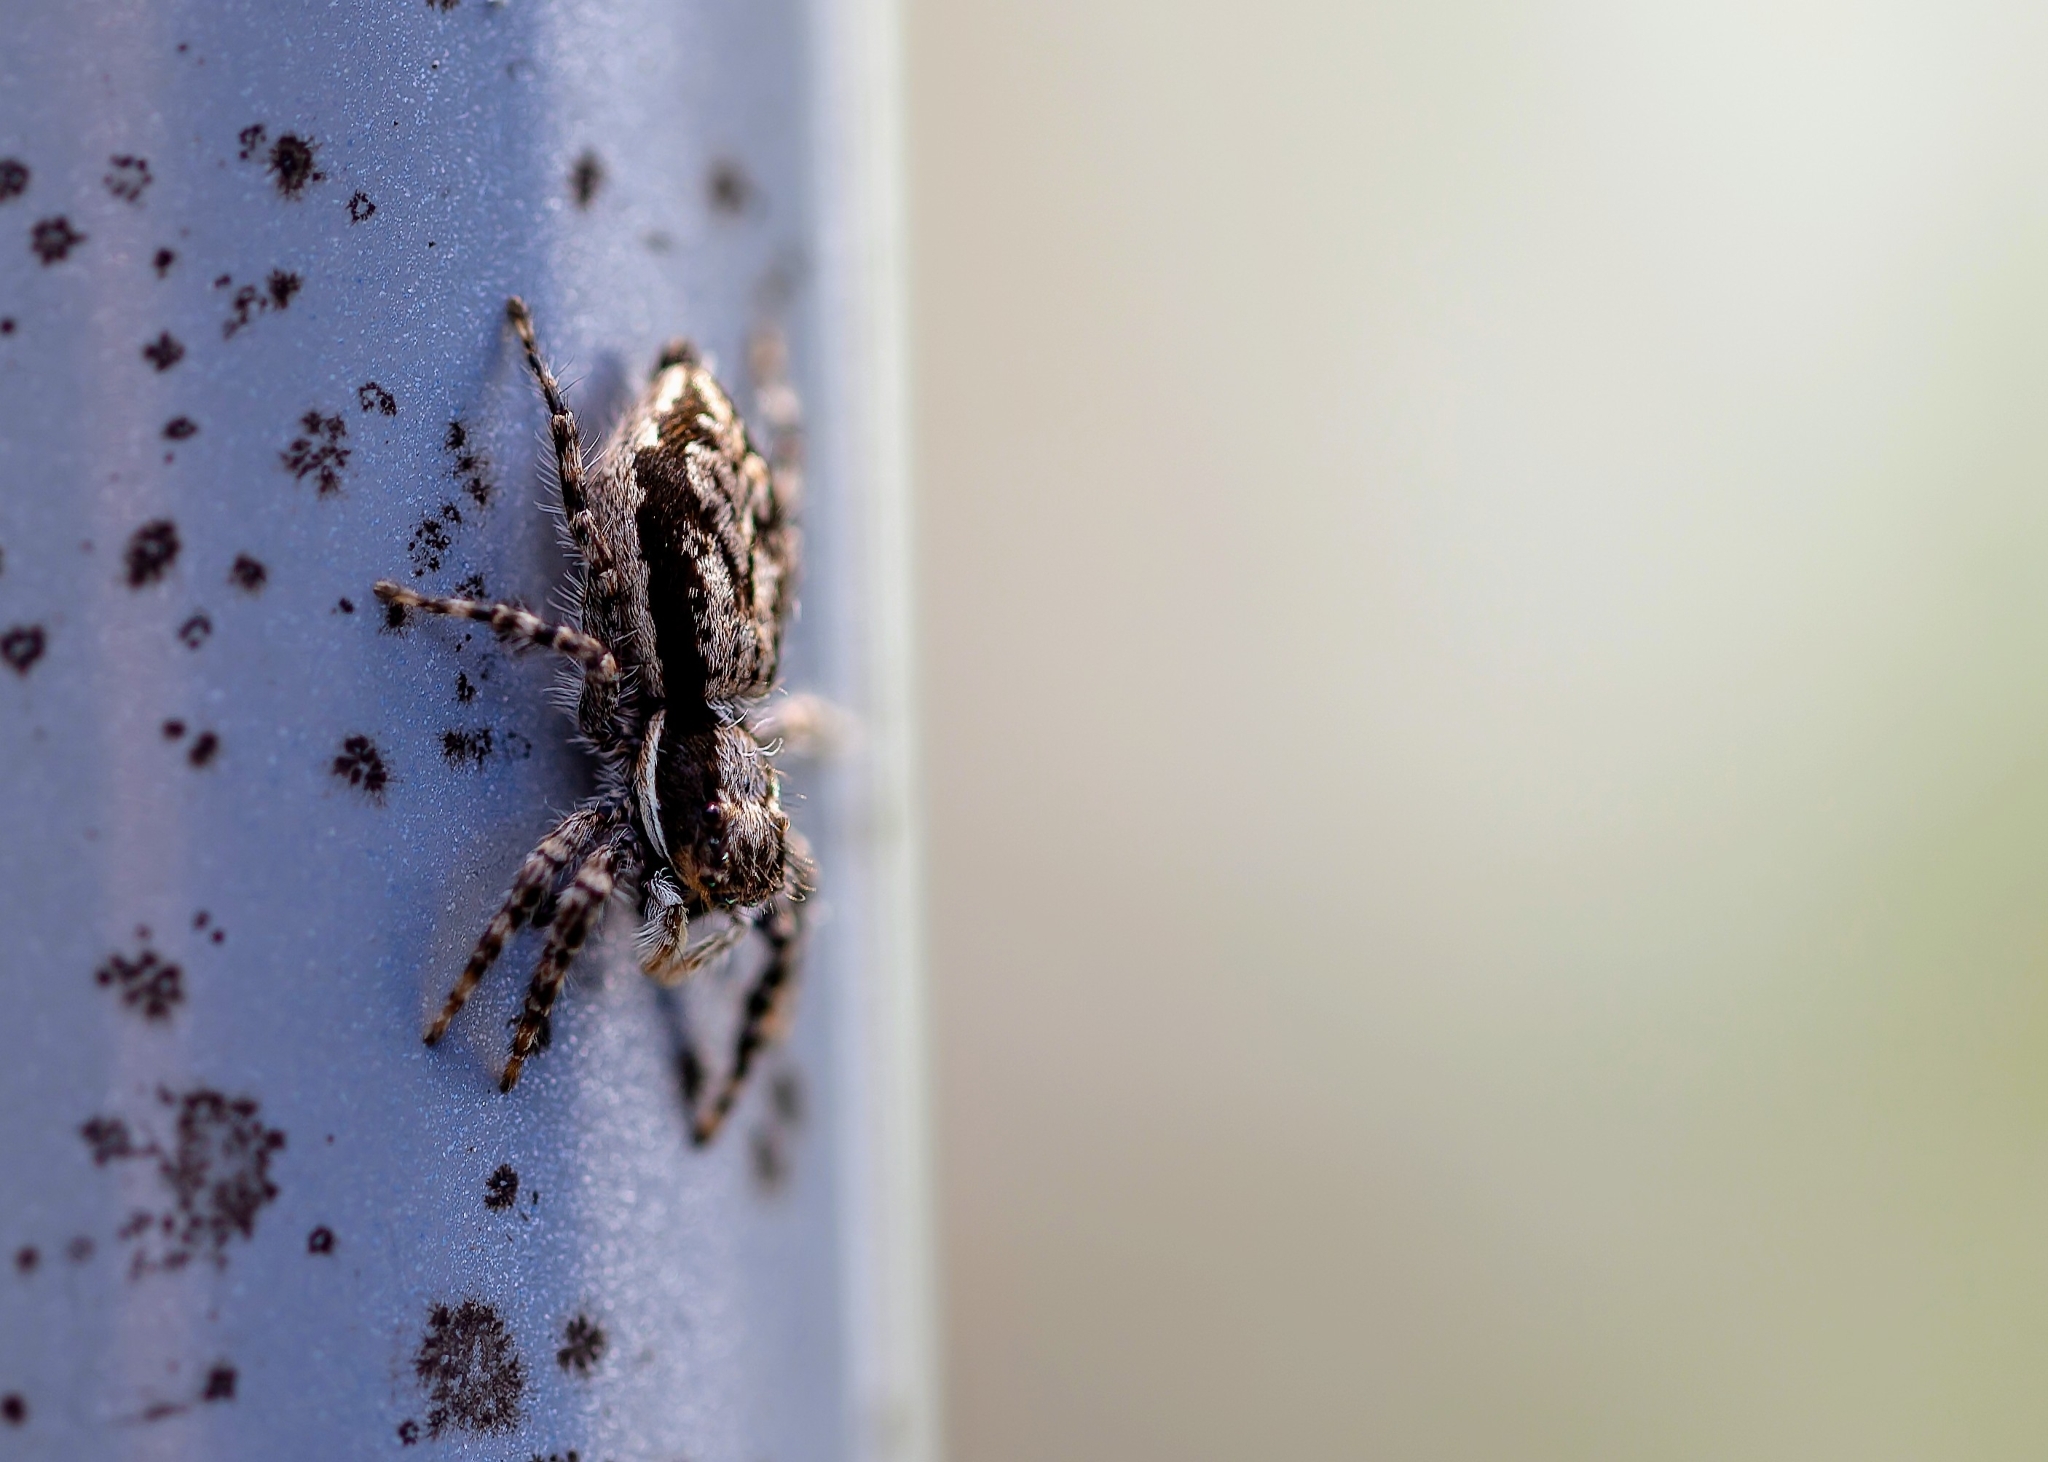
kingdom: Animalia
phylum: Arthropoda
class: Arachnida
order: Araneae
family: Salticidae
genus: Menemerus
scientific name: Menemerus bivittatus
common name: Gray wall jumper
